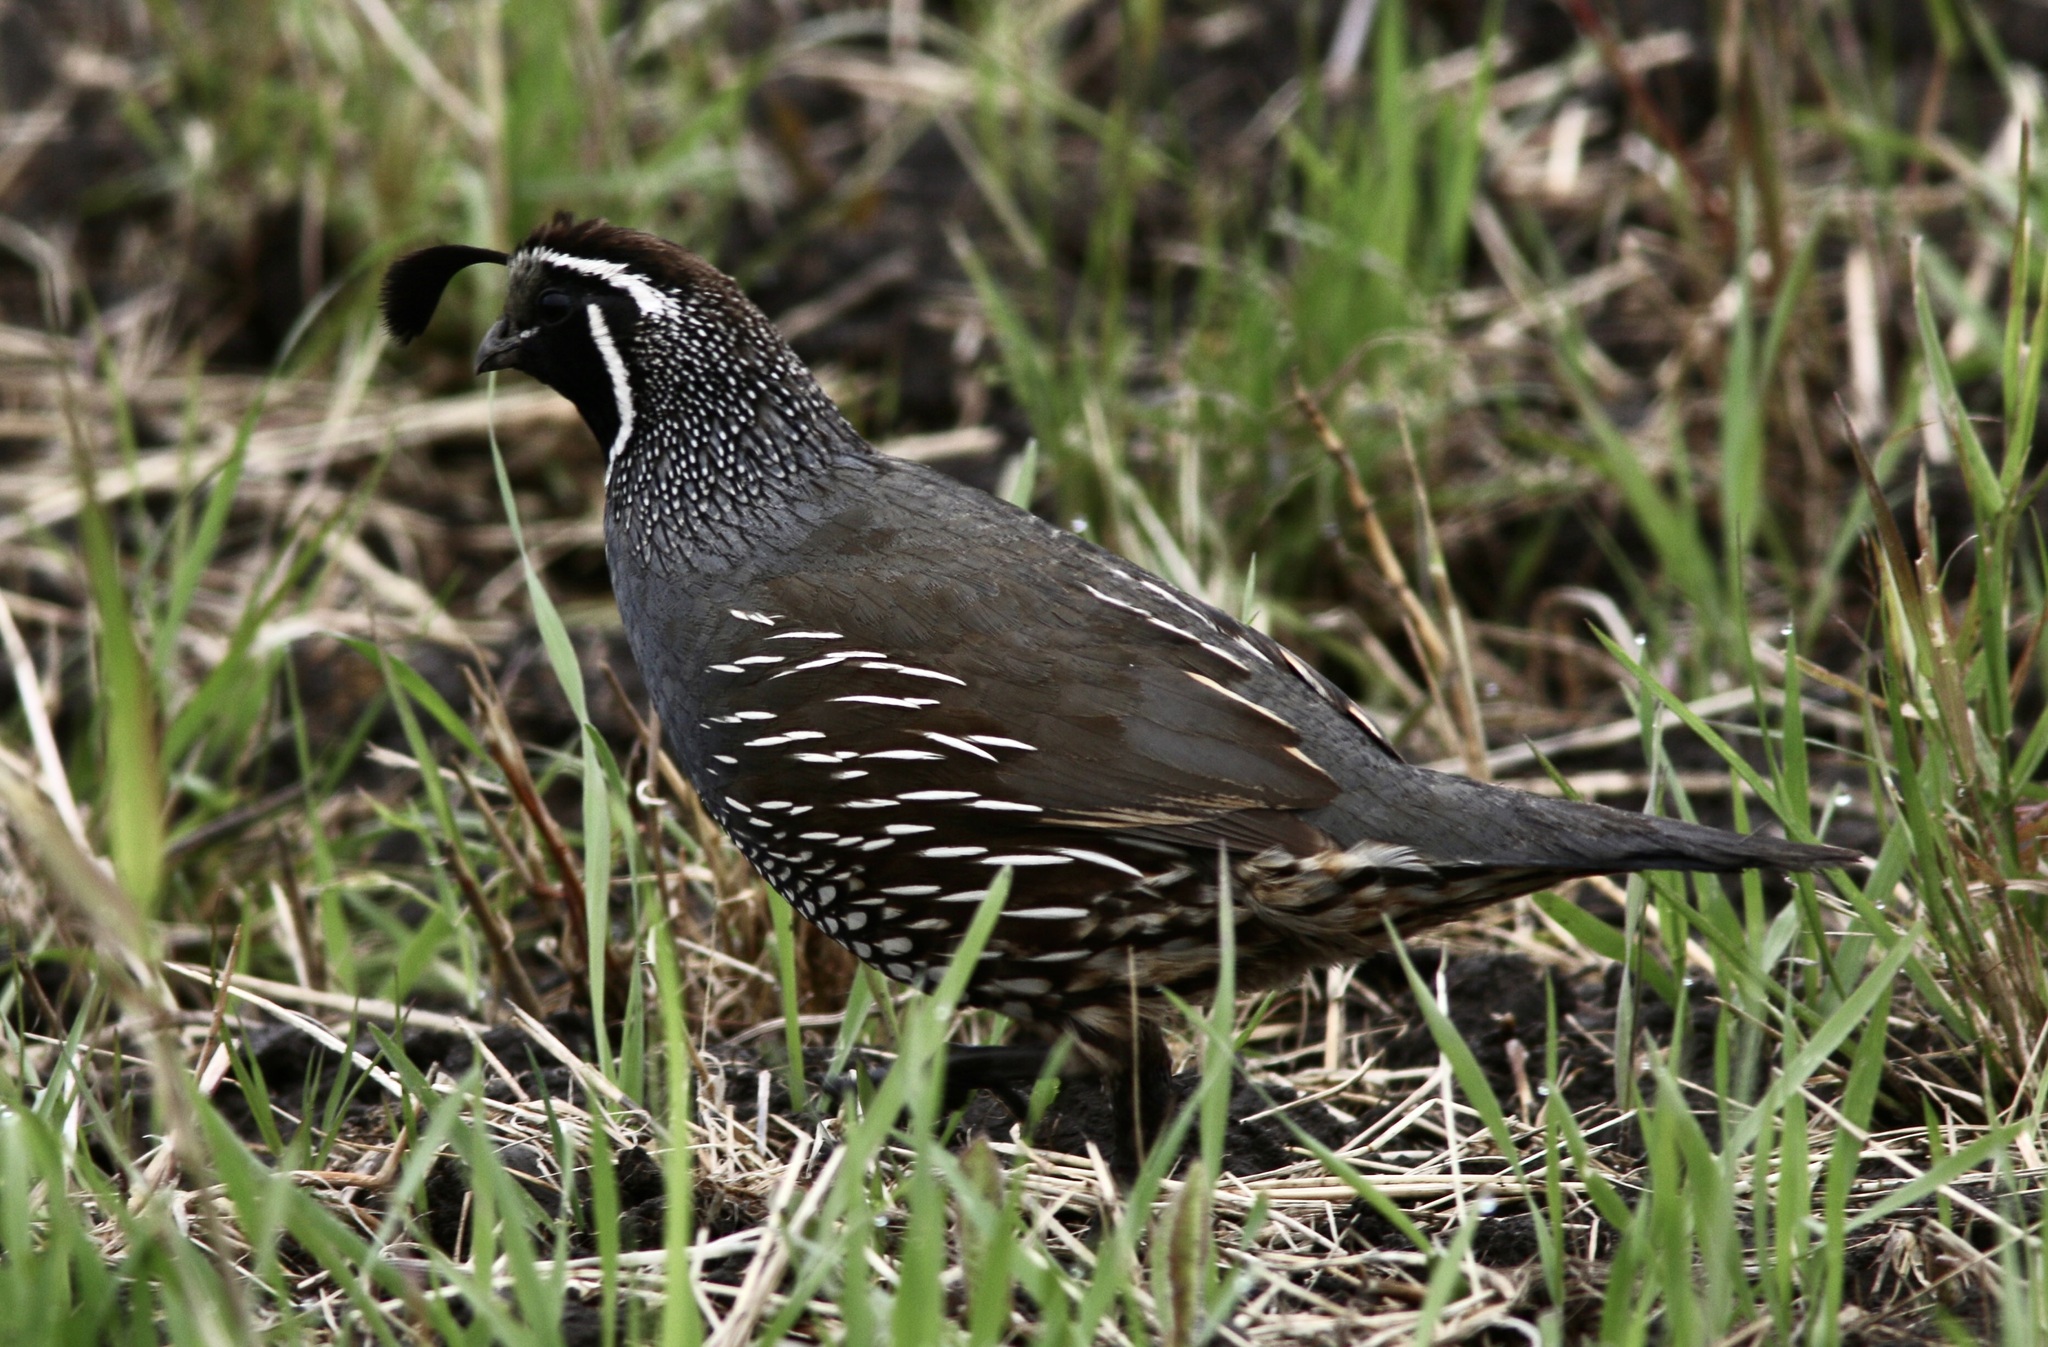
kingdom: Animalia
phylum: Chordata
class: Aves
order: Galliformes
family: Odontophoridae
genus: Callipepla
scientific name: Callipepla californica
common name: California quail
